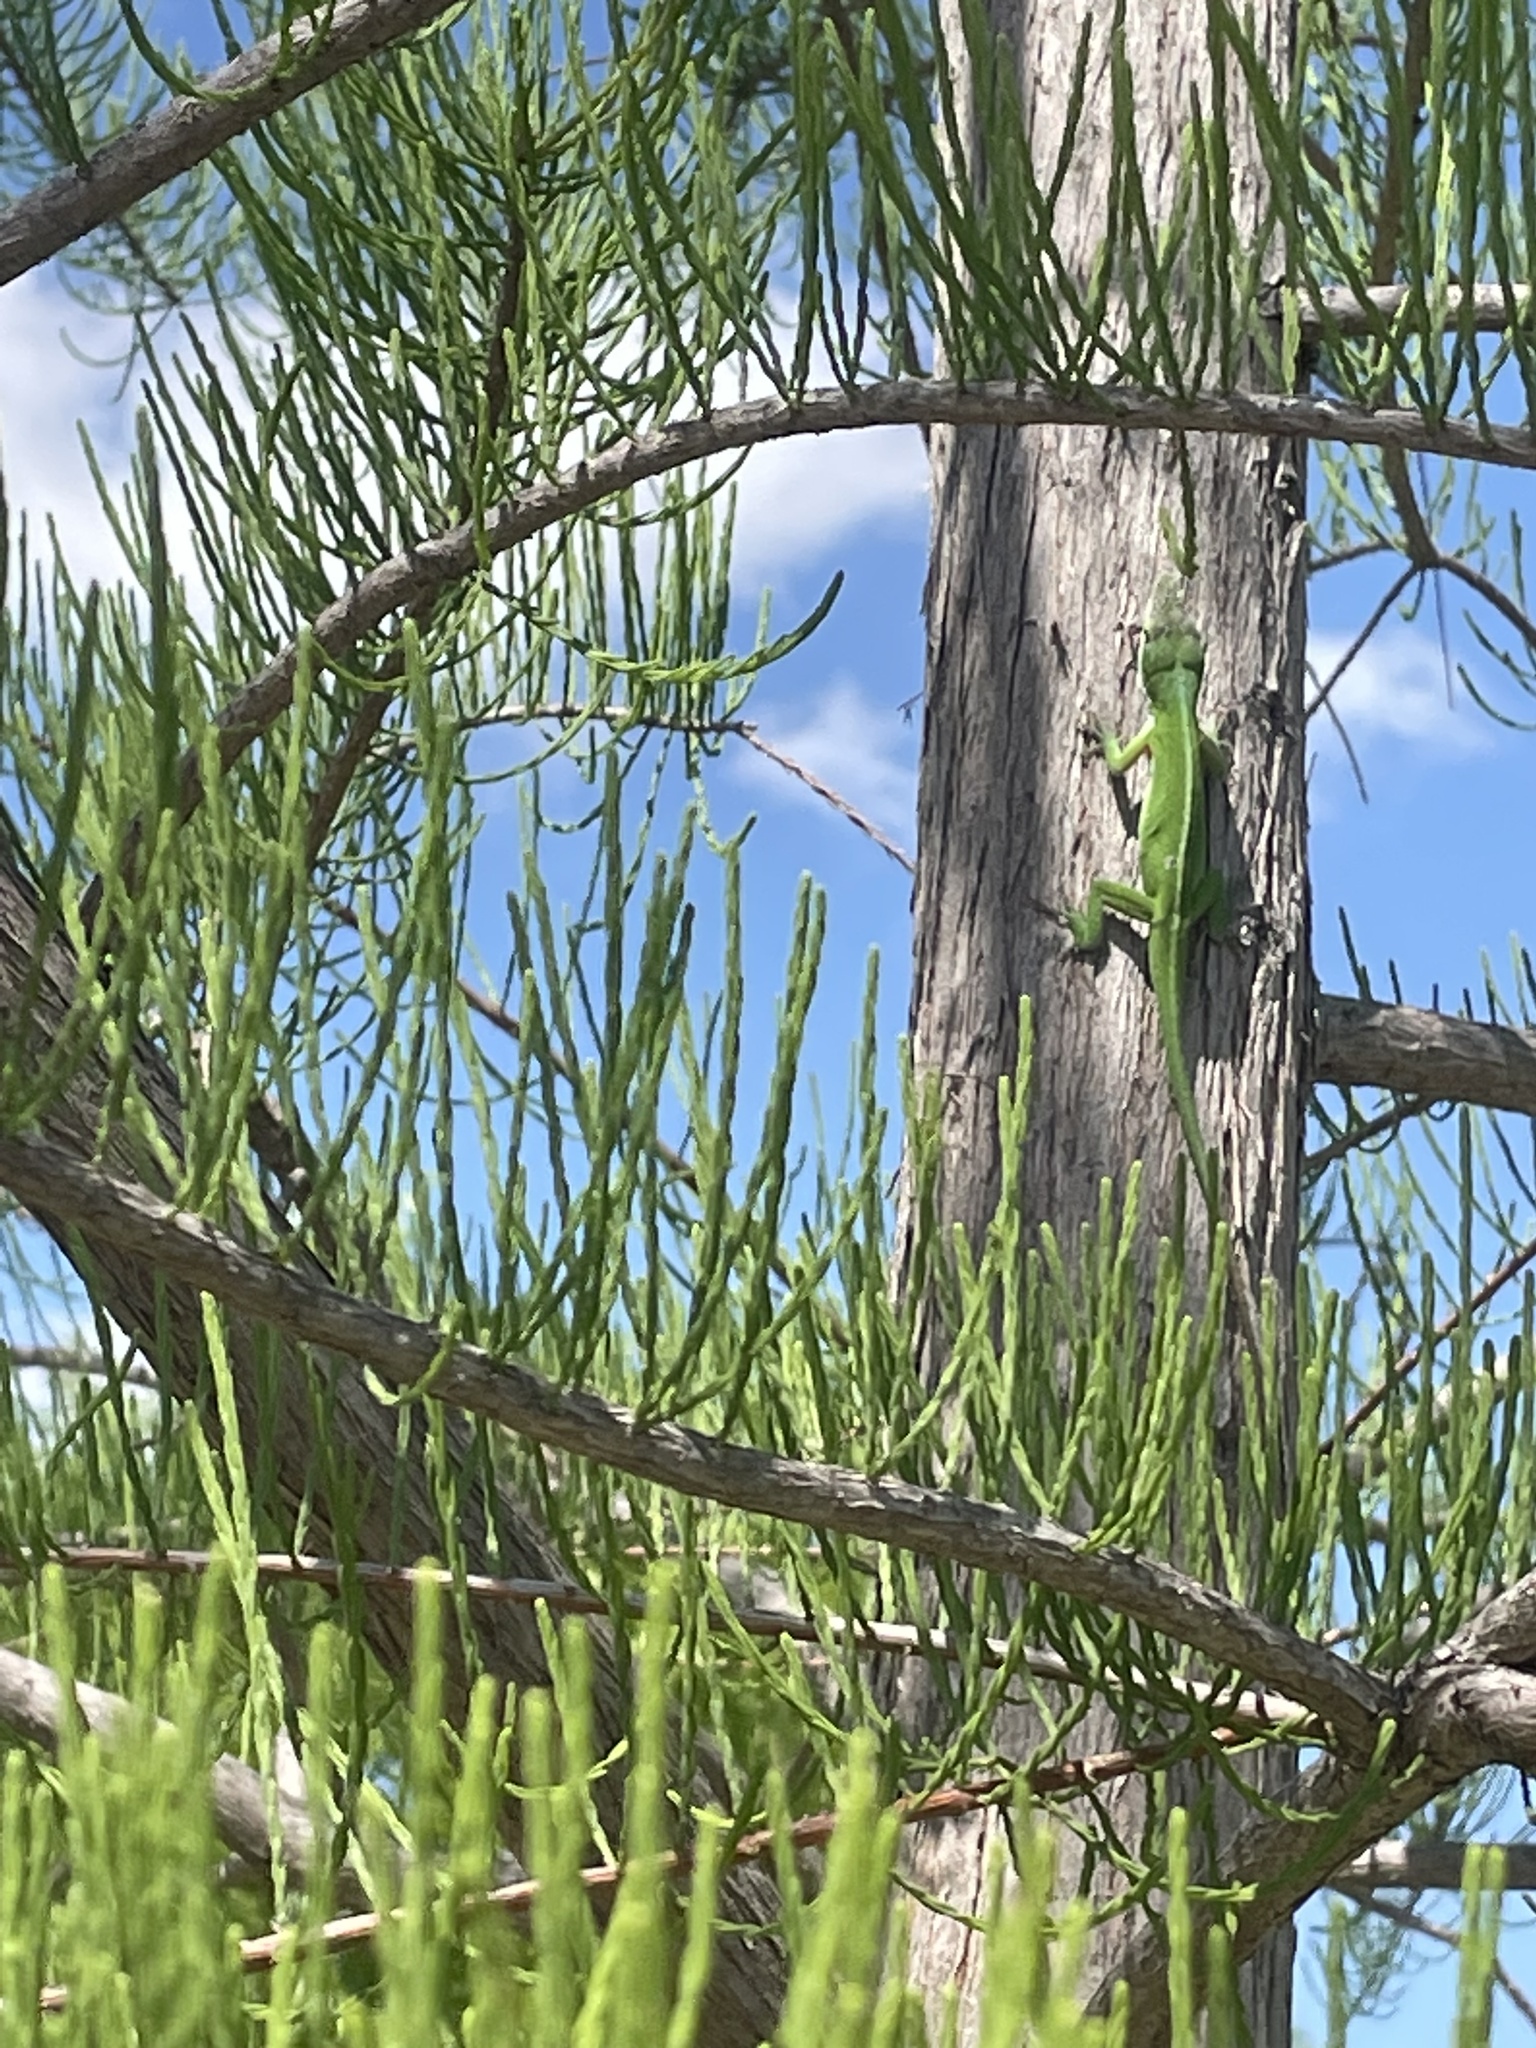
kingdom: Animalia
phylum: Chordata
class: Squamata
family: Dactyloidae
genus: Anolis
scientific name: Anolis carolinensis
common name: Green anole
